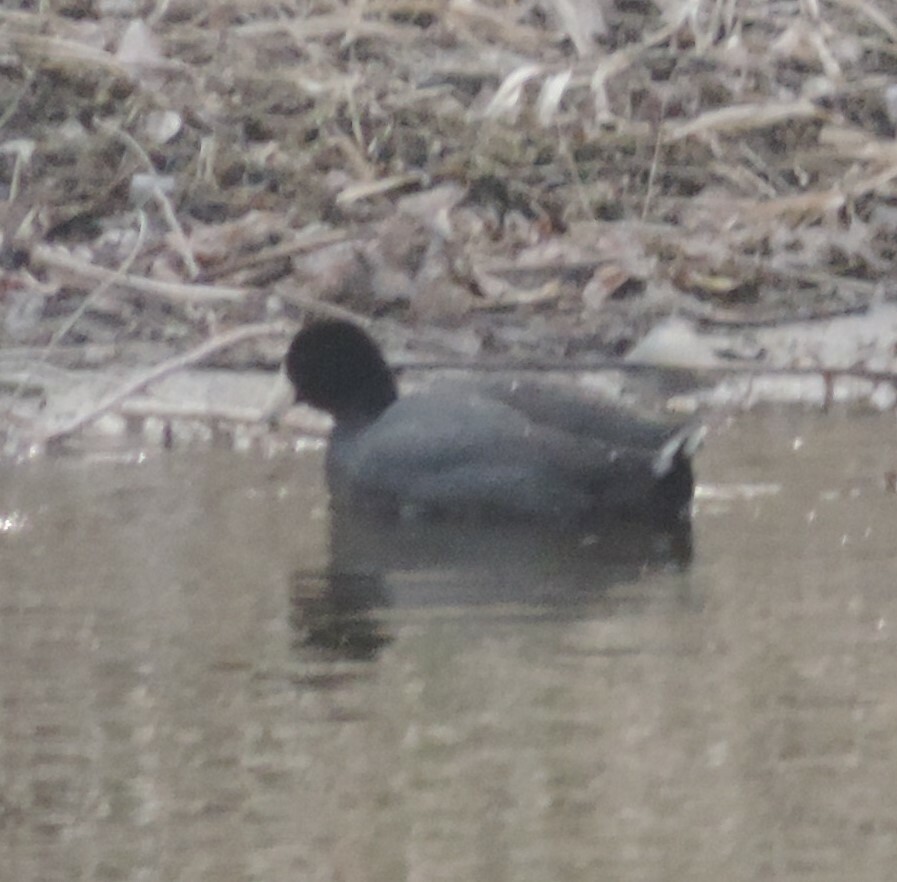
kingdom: Animalia
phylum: Chordata
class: Aves
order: Gruiformes
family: Rallidae
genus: Fulica
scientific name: Fulica americana
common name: American coot
